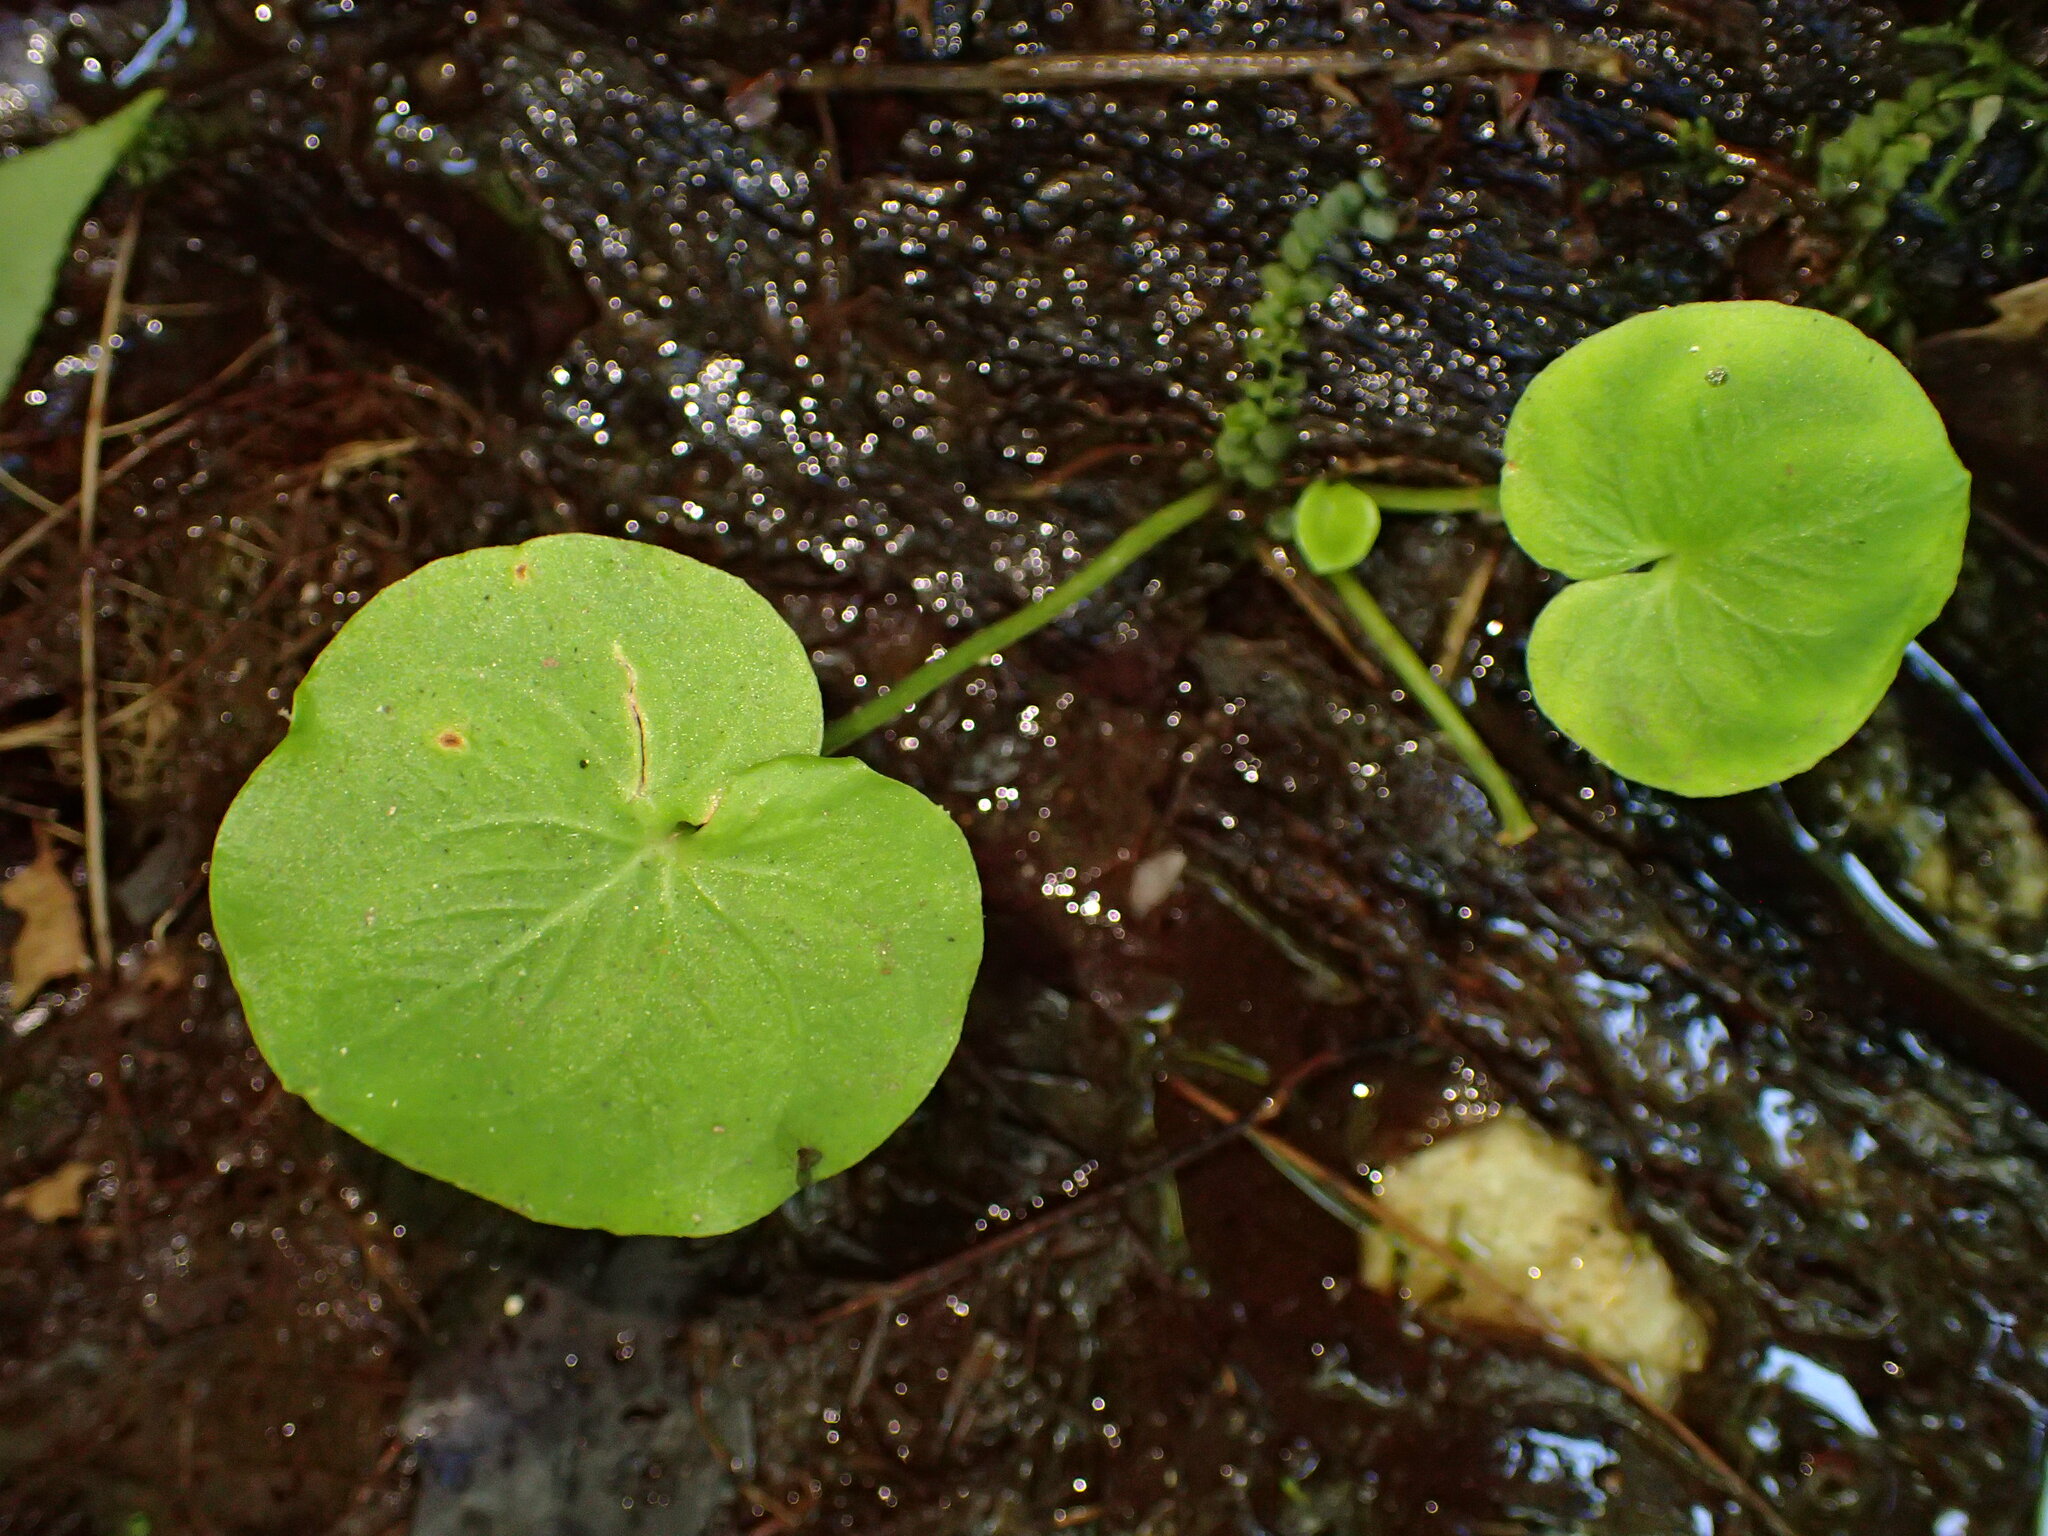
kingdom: Plantae
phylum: Tracheophyta
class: Magnoliopsida
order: Celastrales
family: Parnassiaceae
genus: Parnassia
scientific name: Parnassia asarifolia
